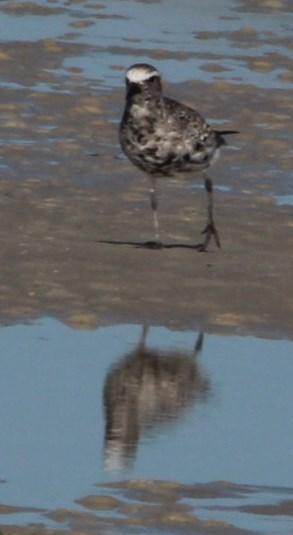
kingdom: Animalia
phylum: Chordata
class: Aves
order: Charadriiformes
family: Charadriidae
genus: Pluvialis
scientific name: Pluvialis squatarola
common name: Grey plover
